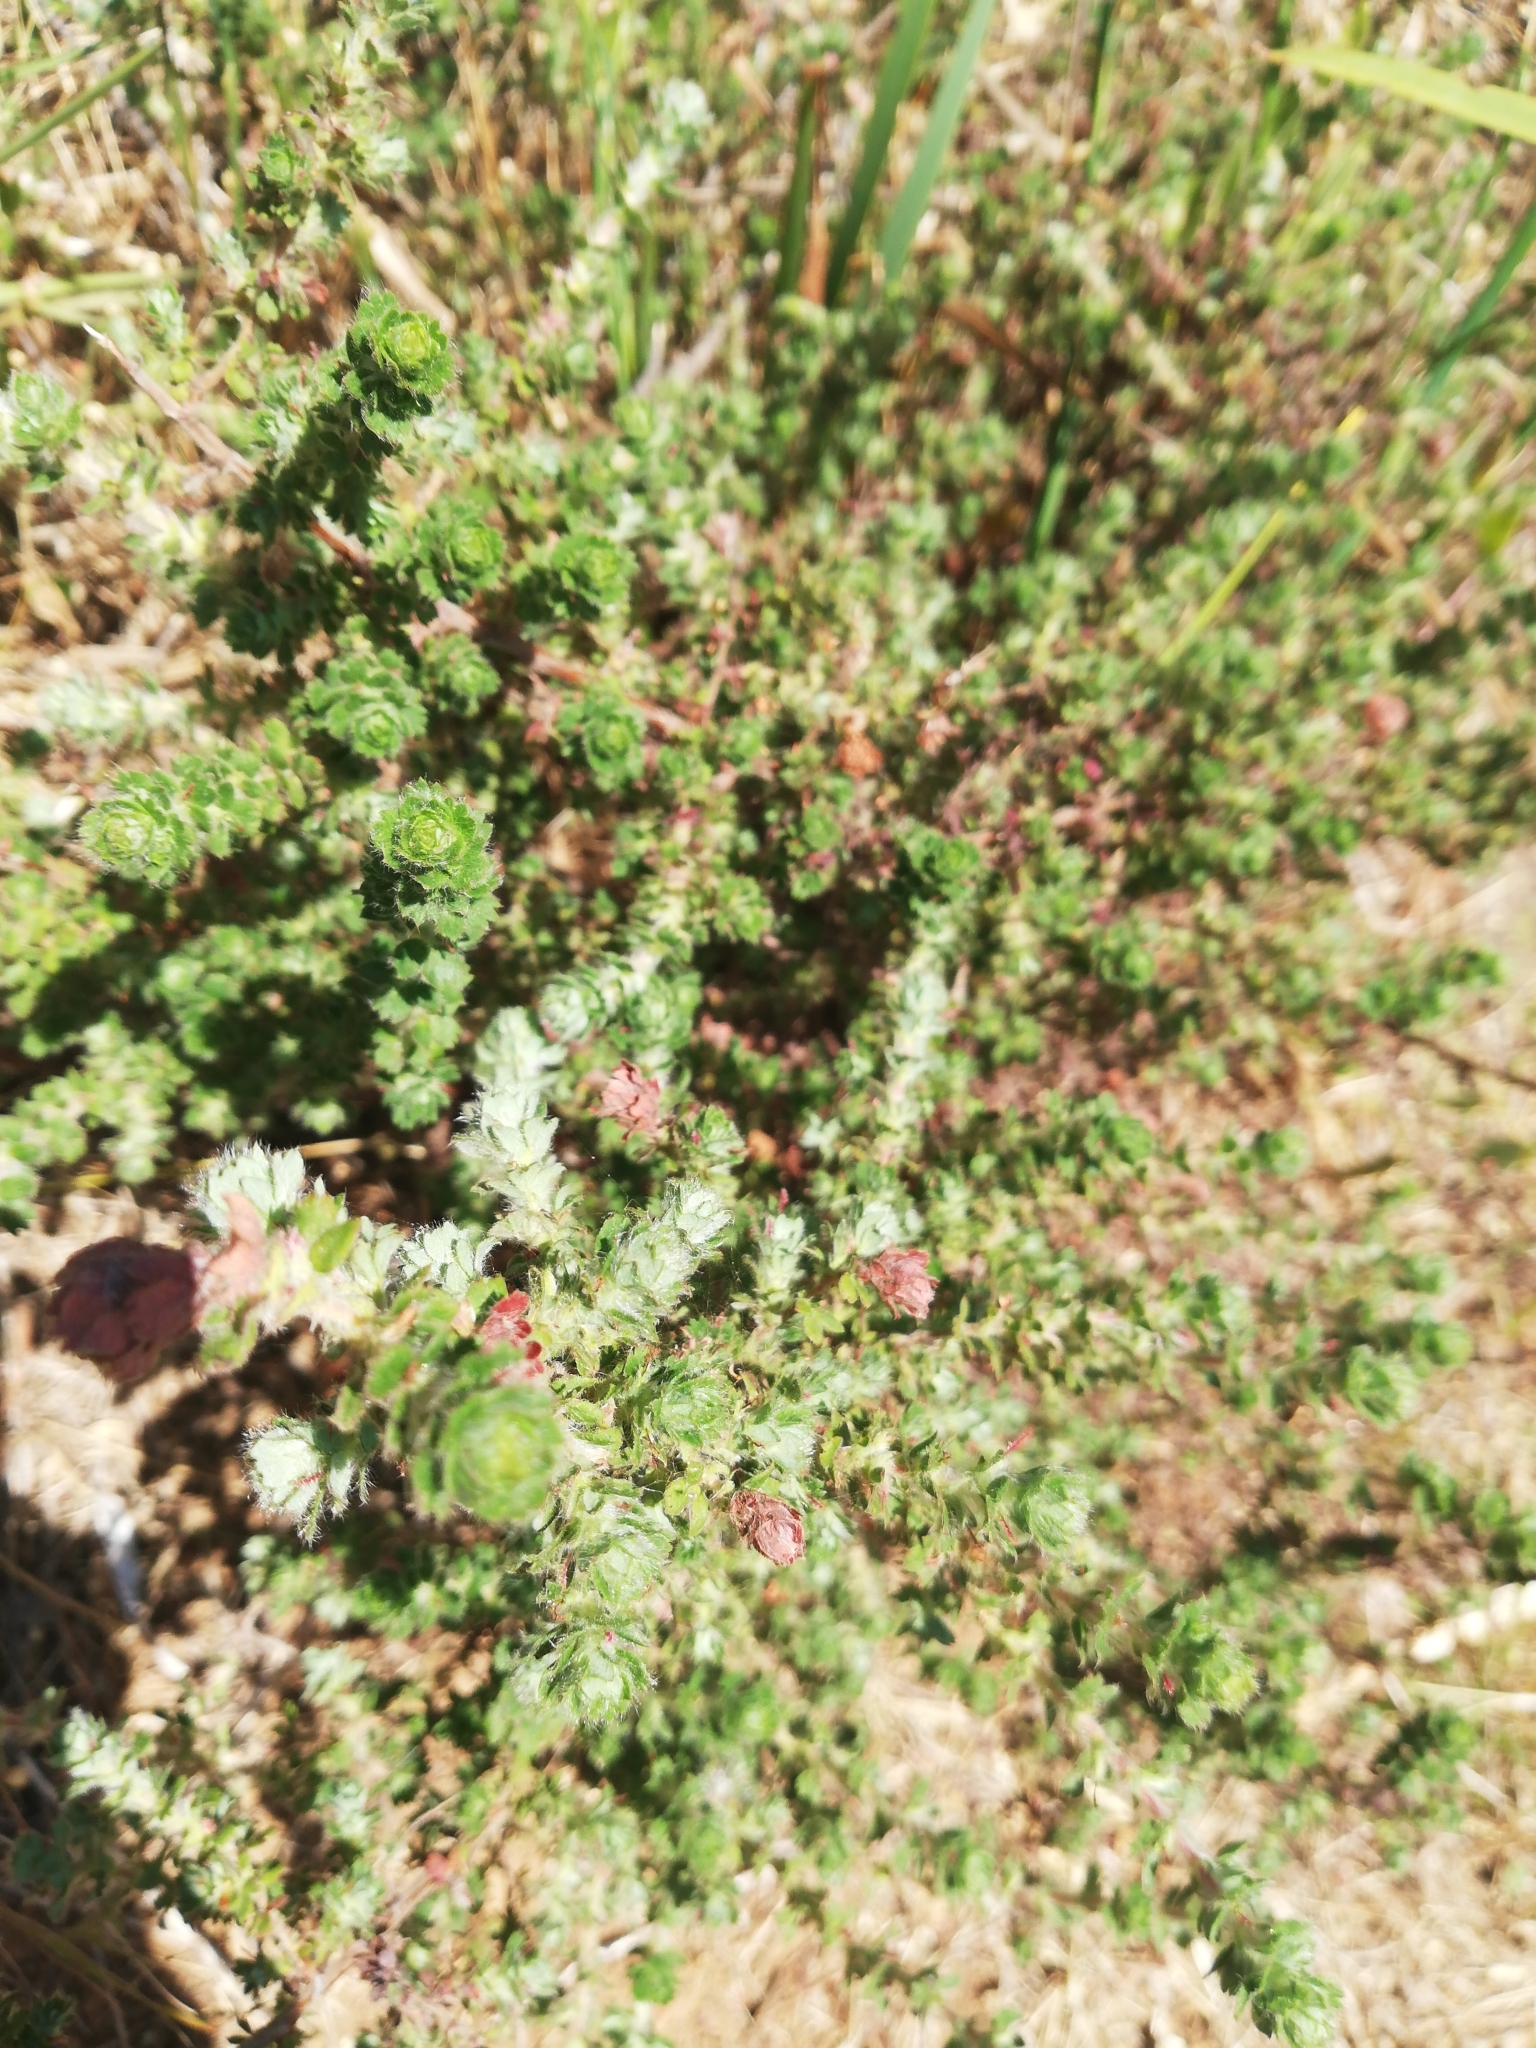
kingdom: Plantae
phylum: Tracheophyta
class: Magnoliopsida
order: Rosales
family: Rosaceae
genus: Cliffortia
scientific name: Cliffortia filicaulis
